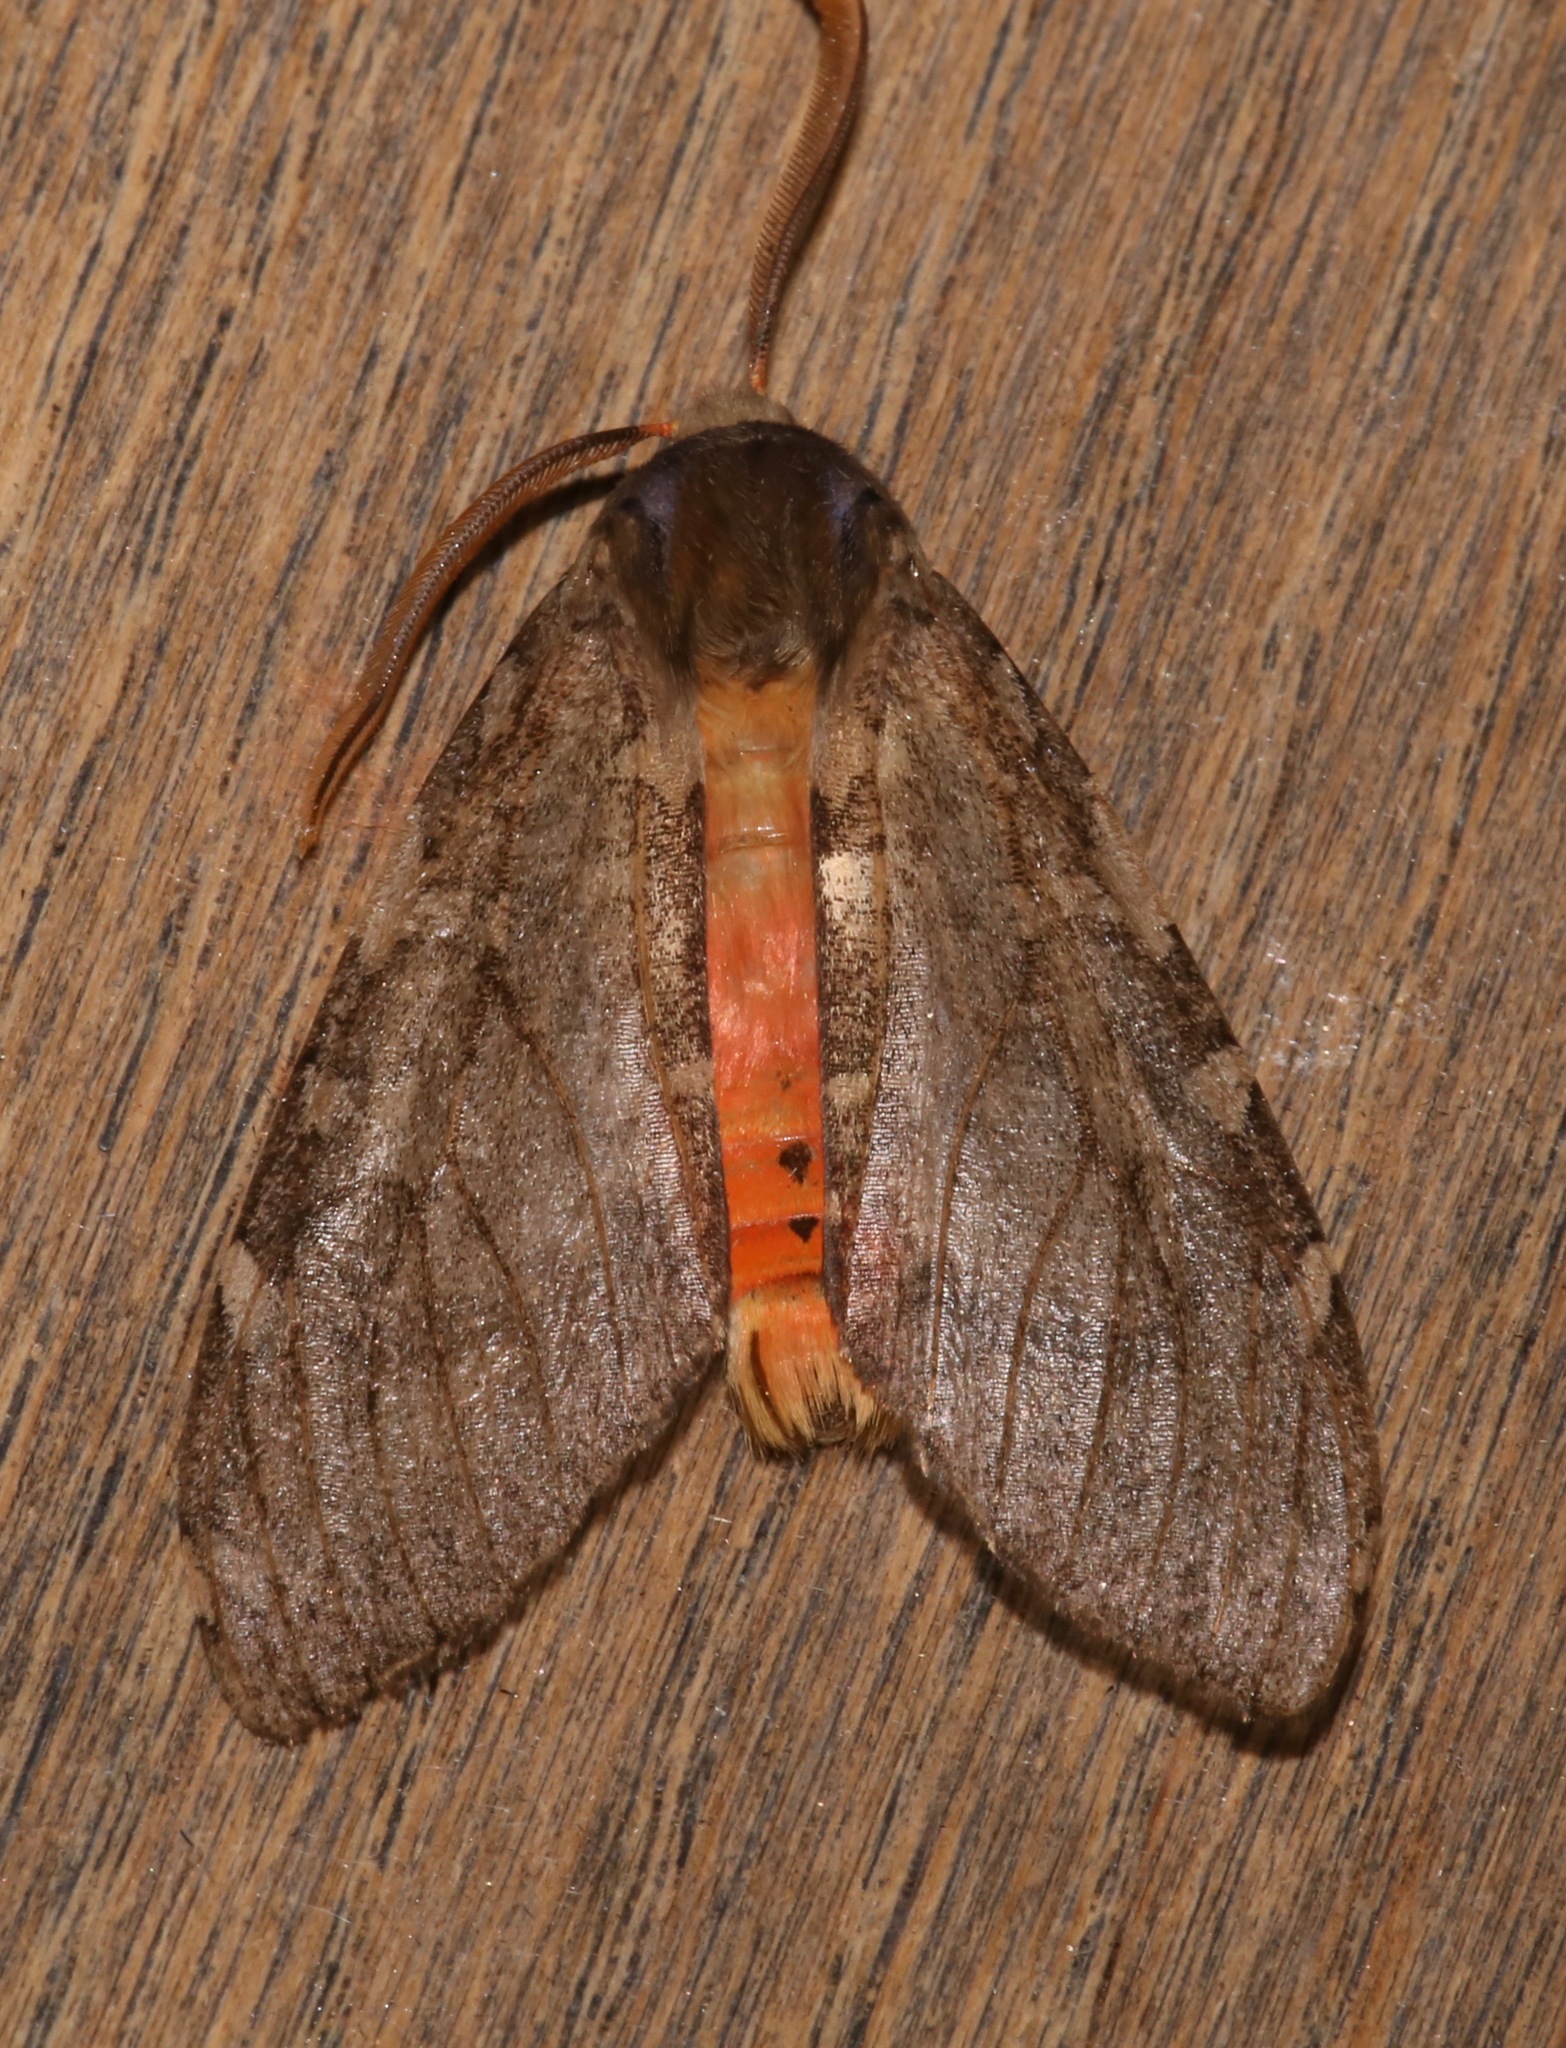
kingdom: Animalia
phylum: Arthropoda
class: Insecta
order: Lepidoptera
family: Erebidae
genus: Hemihyalea
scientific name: Hemihyalea labecula
